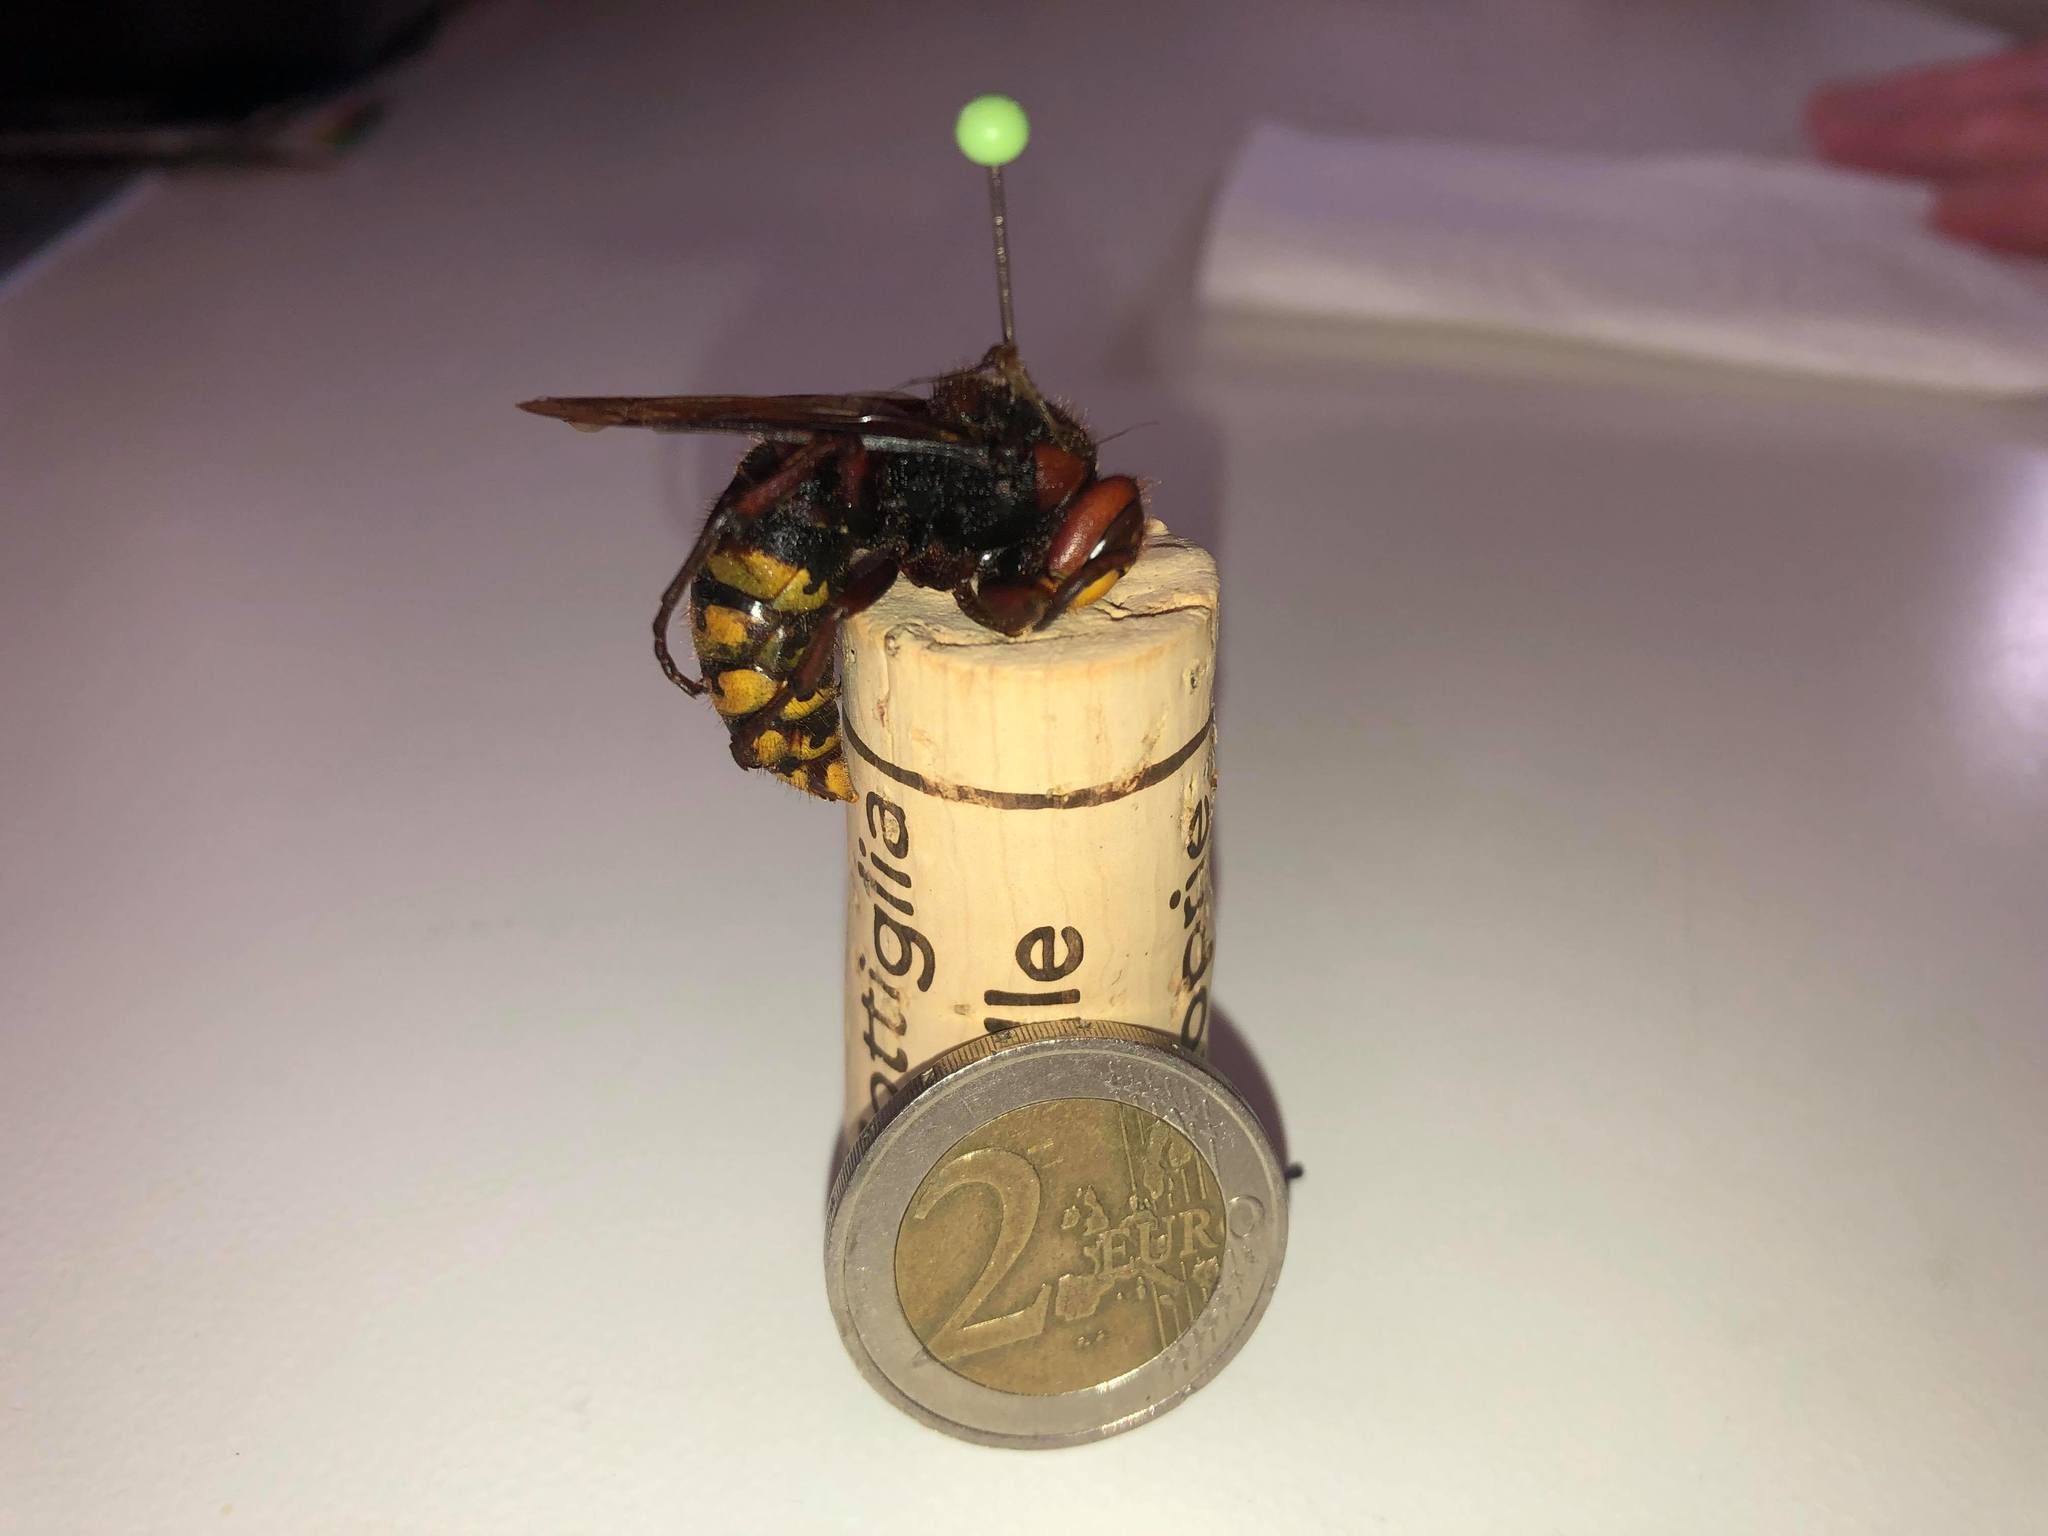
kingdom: Animalia
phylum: Arthropoda
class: Insecta
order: Hymenoptera
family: Vespidae
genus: Vespa
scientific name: Vespa crabro
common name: Hornet
